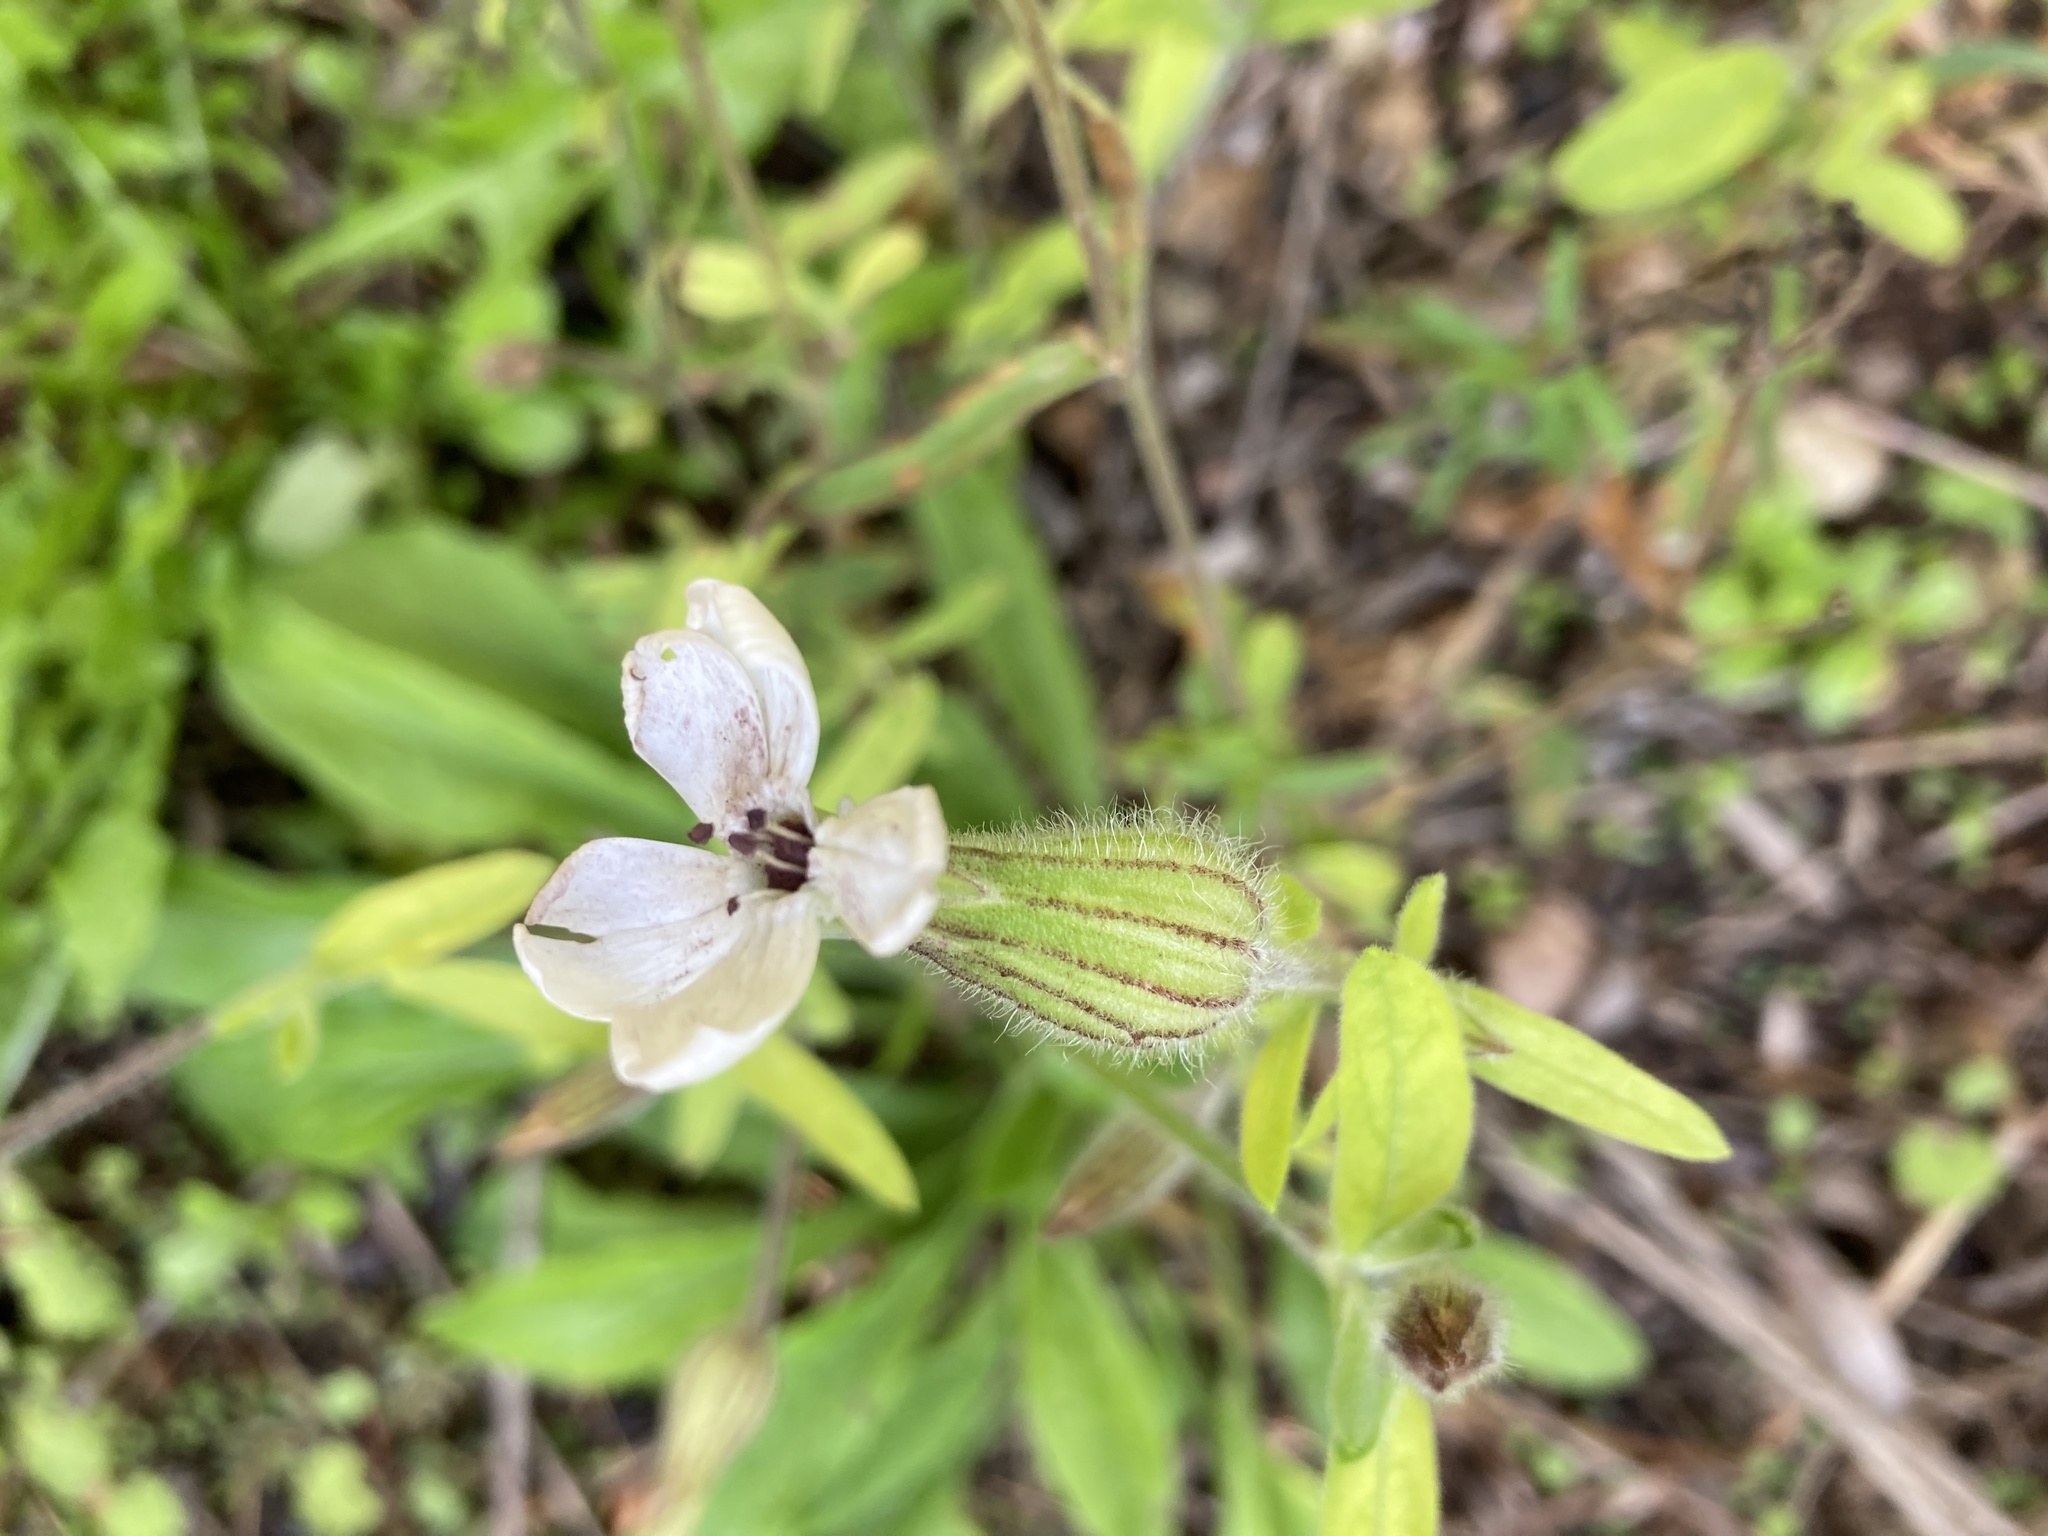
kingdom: Plantae
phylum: Tracheophyta
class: Magnoliopsida
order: Caryophyllales
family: Caryophyllaceae
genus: Silene
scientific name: Silene latifolia
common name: White campion
